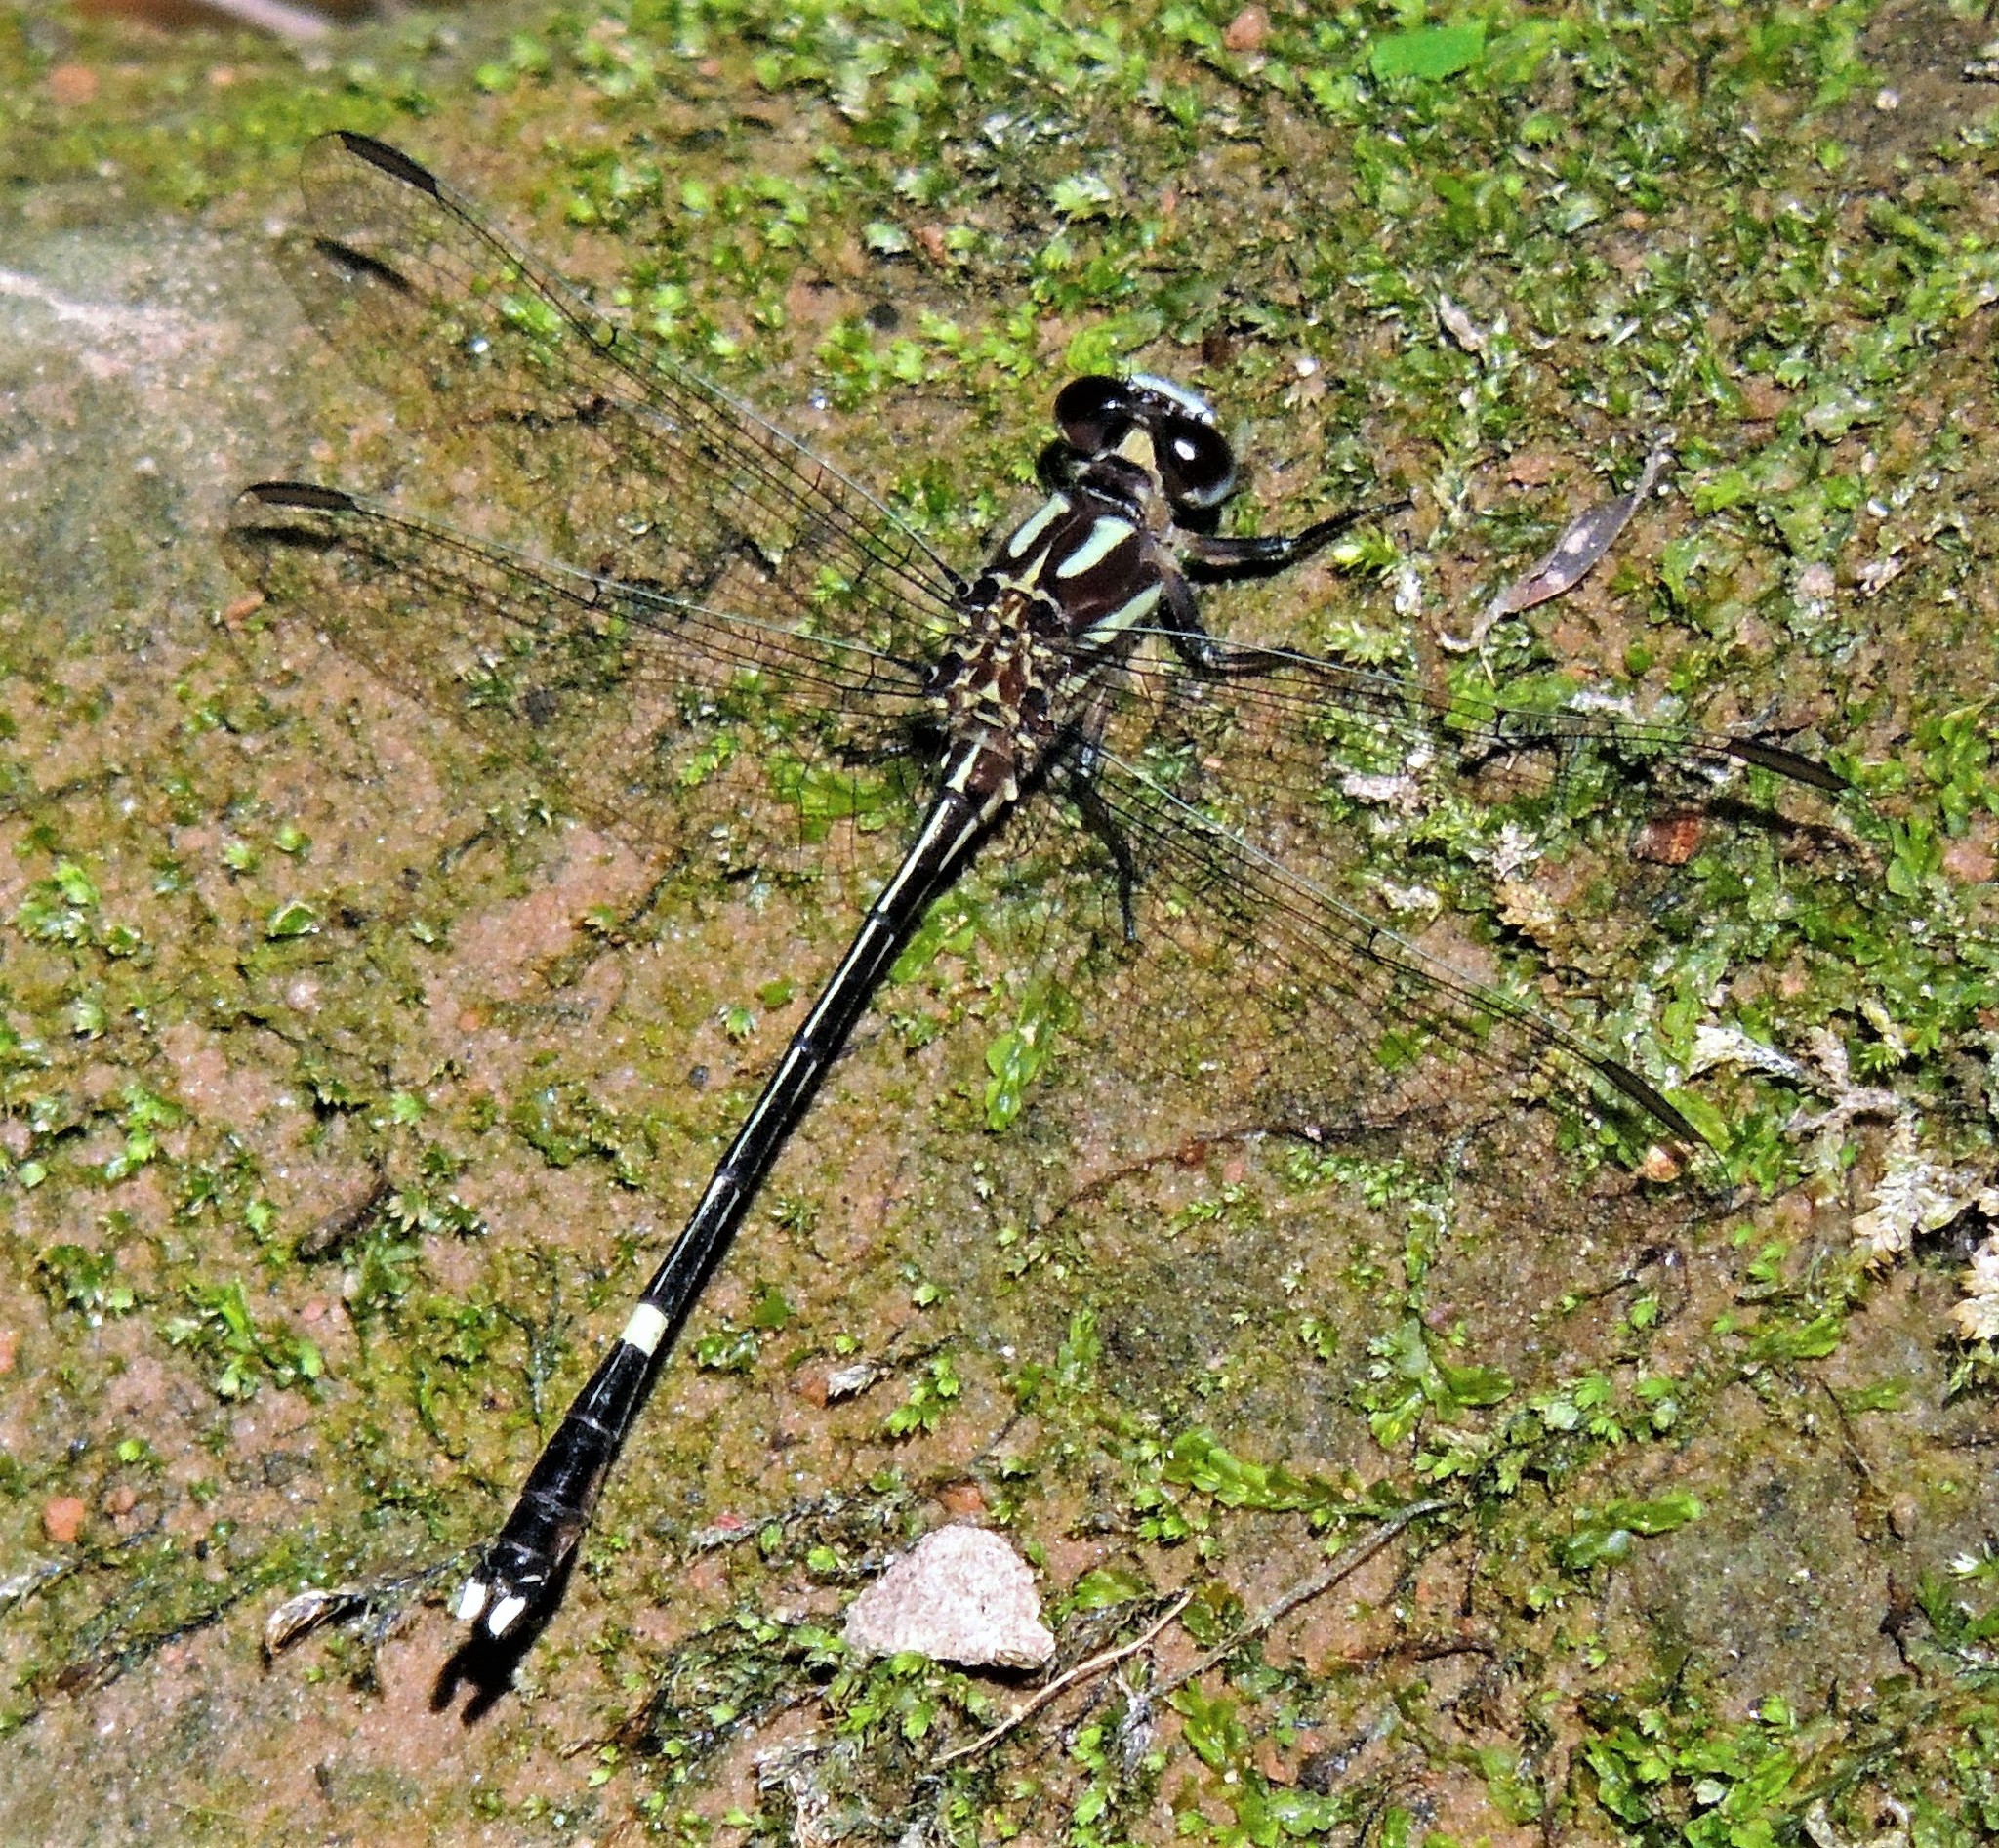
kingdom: Animalia
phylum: Arthropoda
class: Insecta
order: Odonata
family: Gomphidae
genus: Progomphus
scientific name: Progomphus phyllochromus
